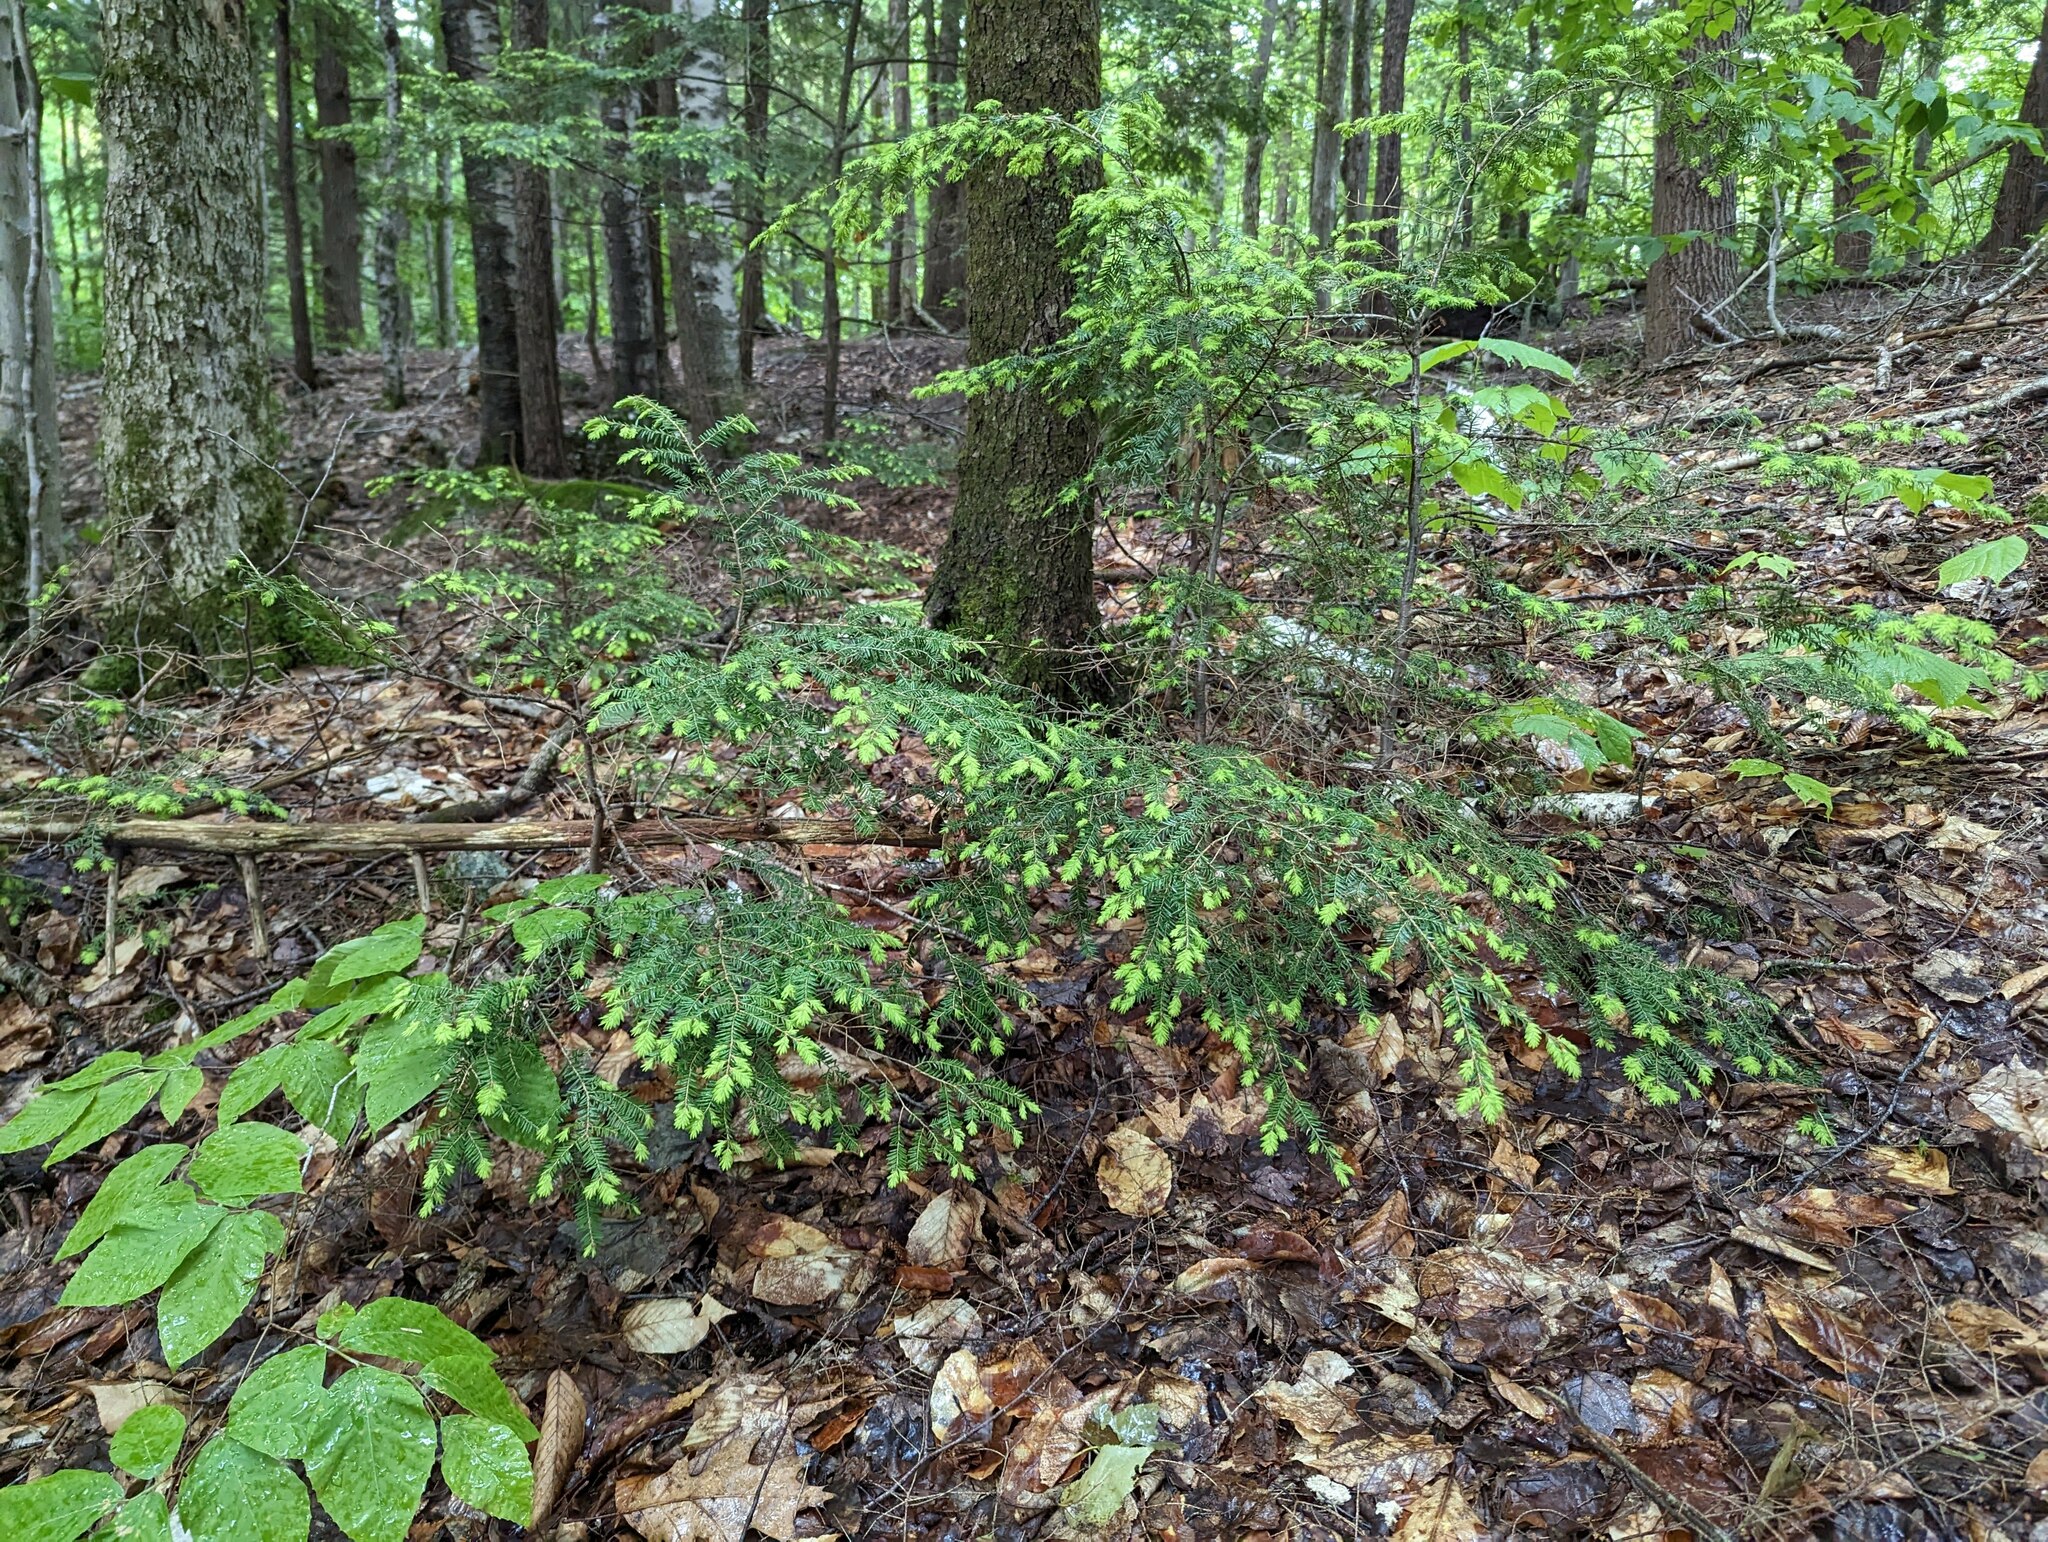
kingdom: Plantae
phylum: Tracheophyta
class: Pinopsida
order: Pinales
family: Pinaceae
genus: Tsuga
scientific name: Tsuga canadensis
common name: Eastern hemlock
